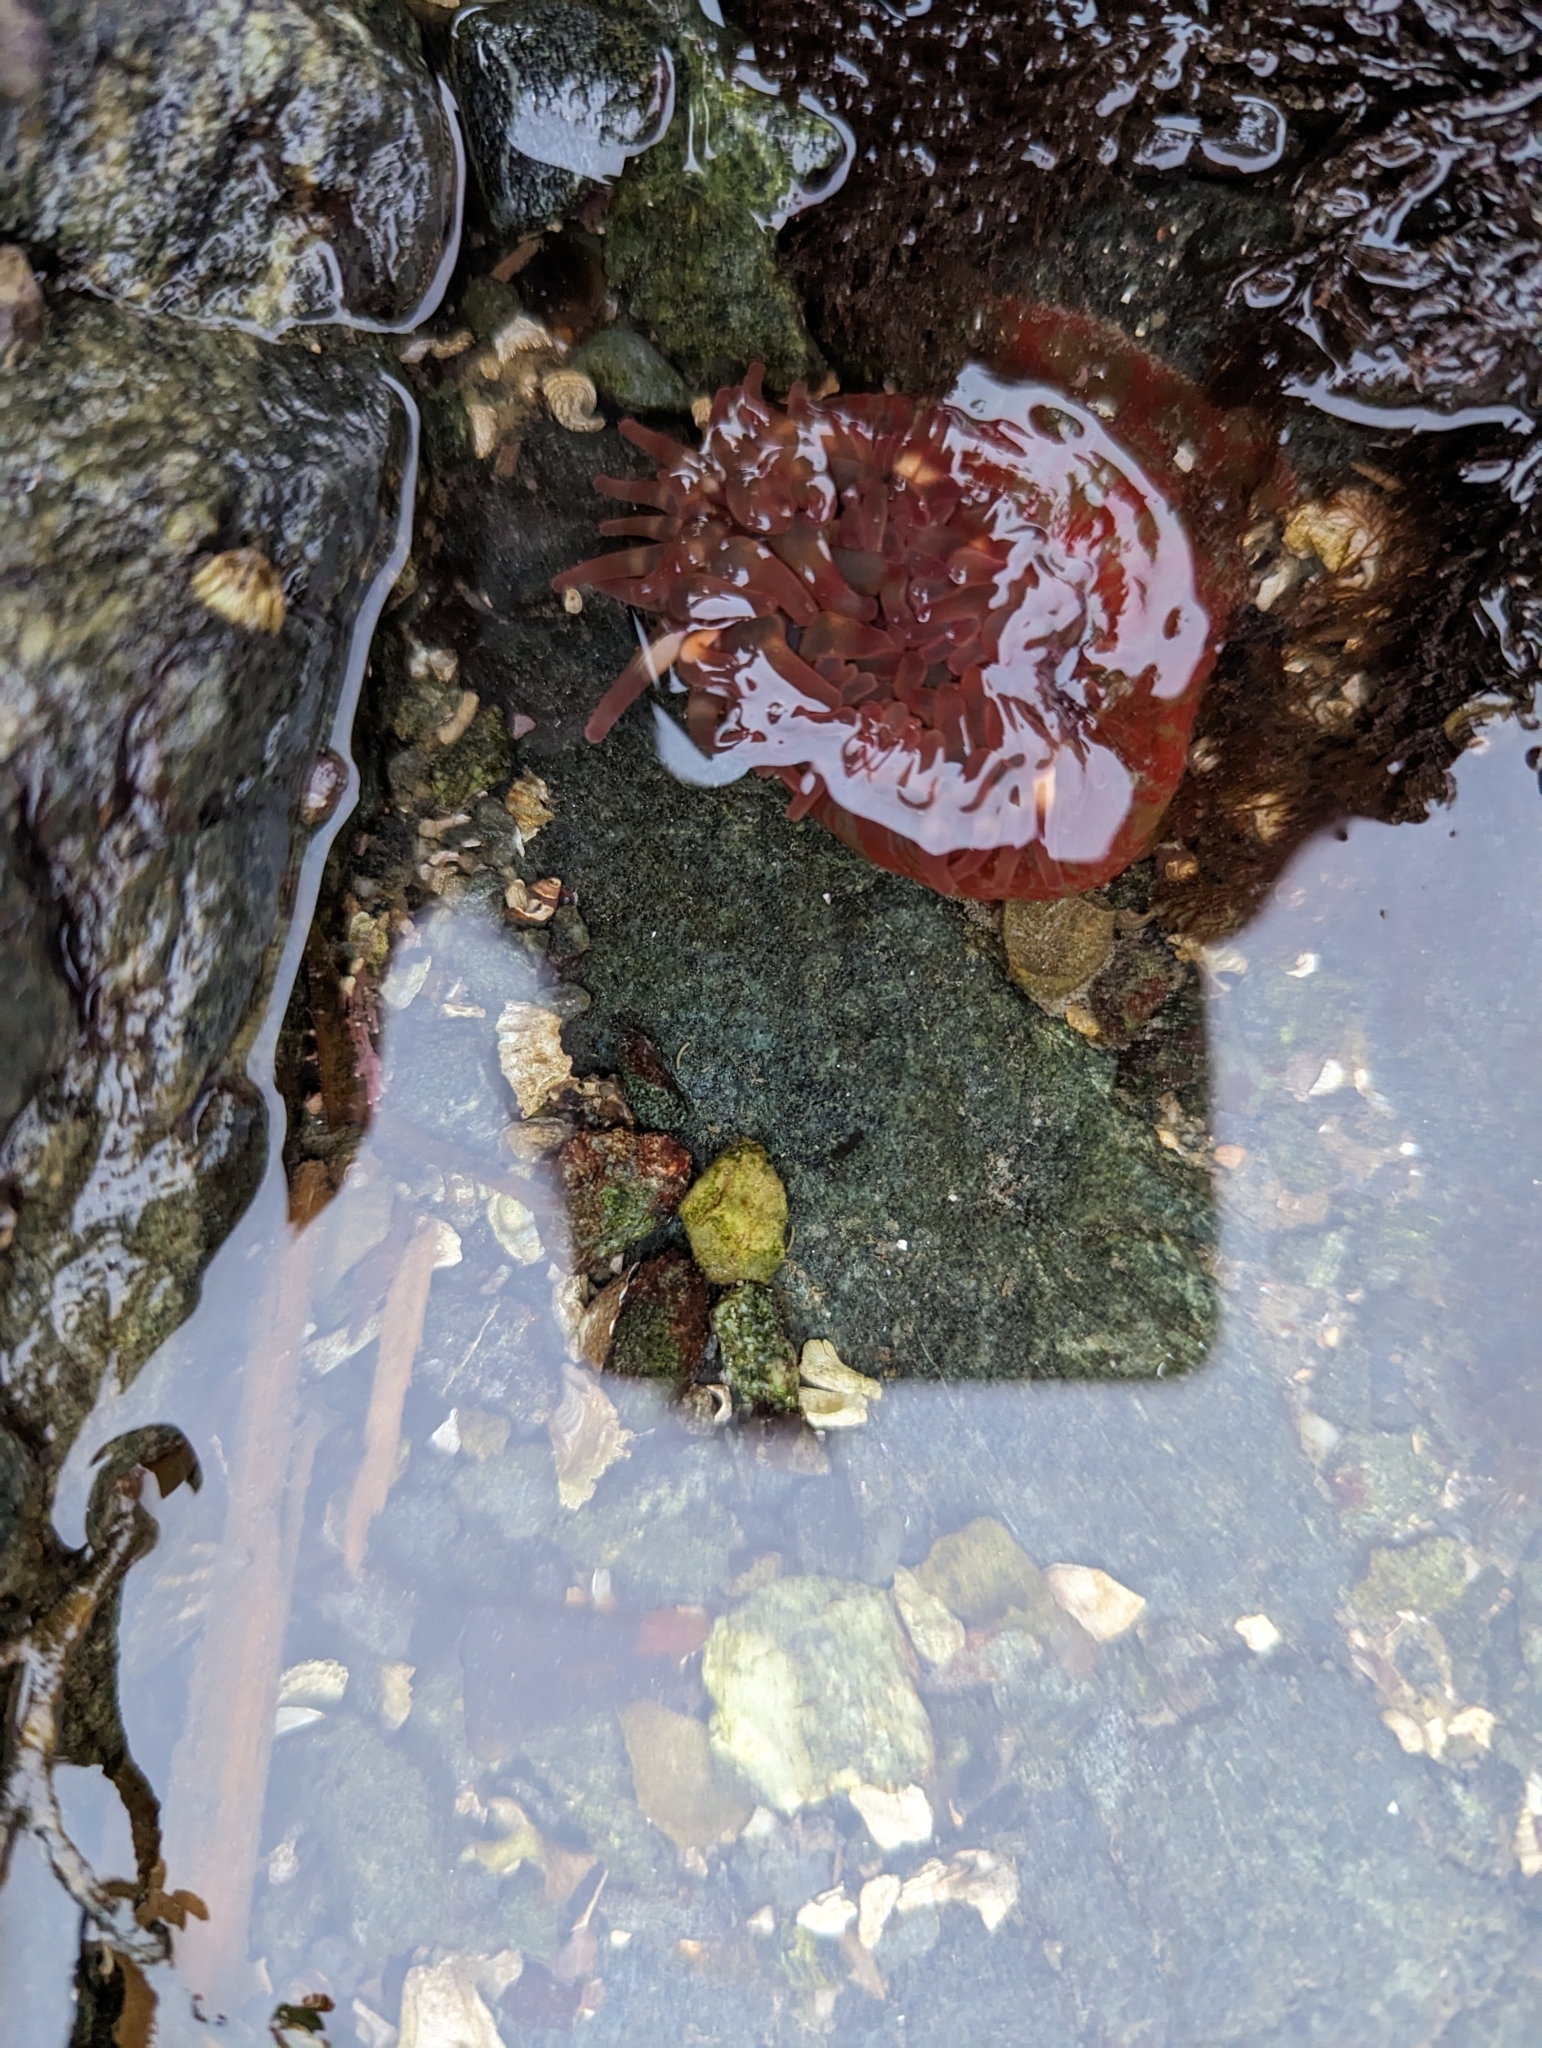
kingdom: Animalia
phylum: Cnidaria
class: Anthozoa
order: Actiniaria
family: Actiniidae
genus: Urticina
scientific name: Urticina grebelnyi
